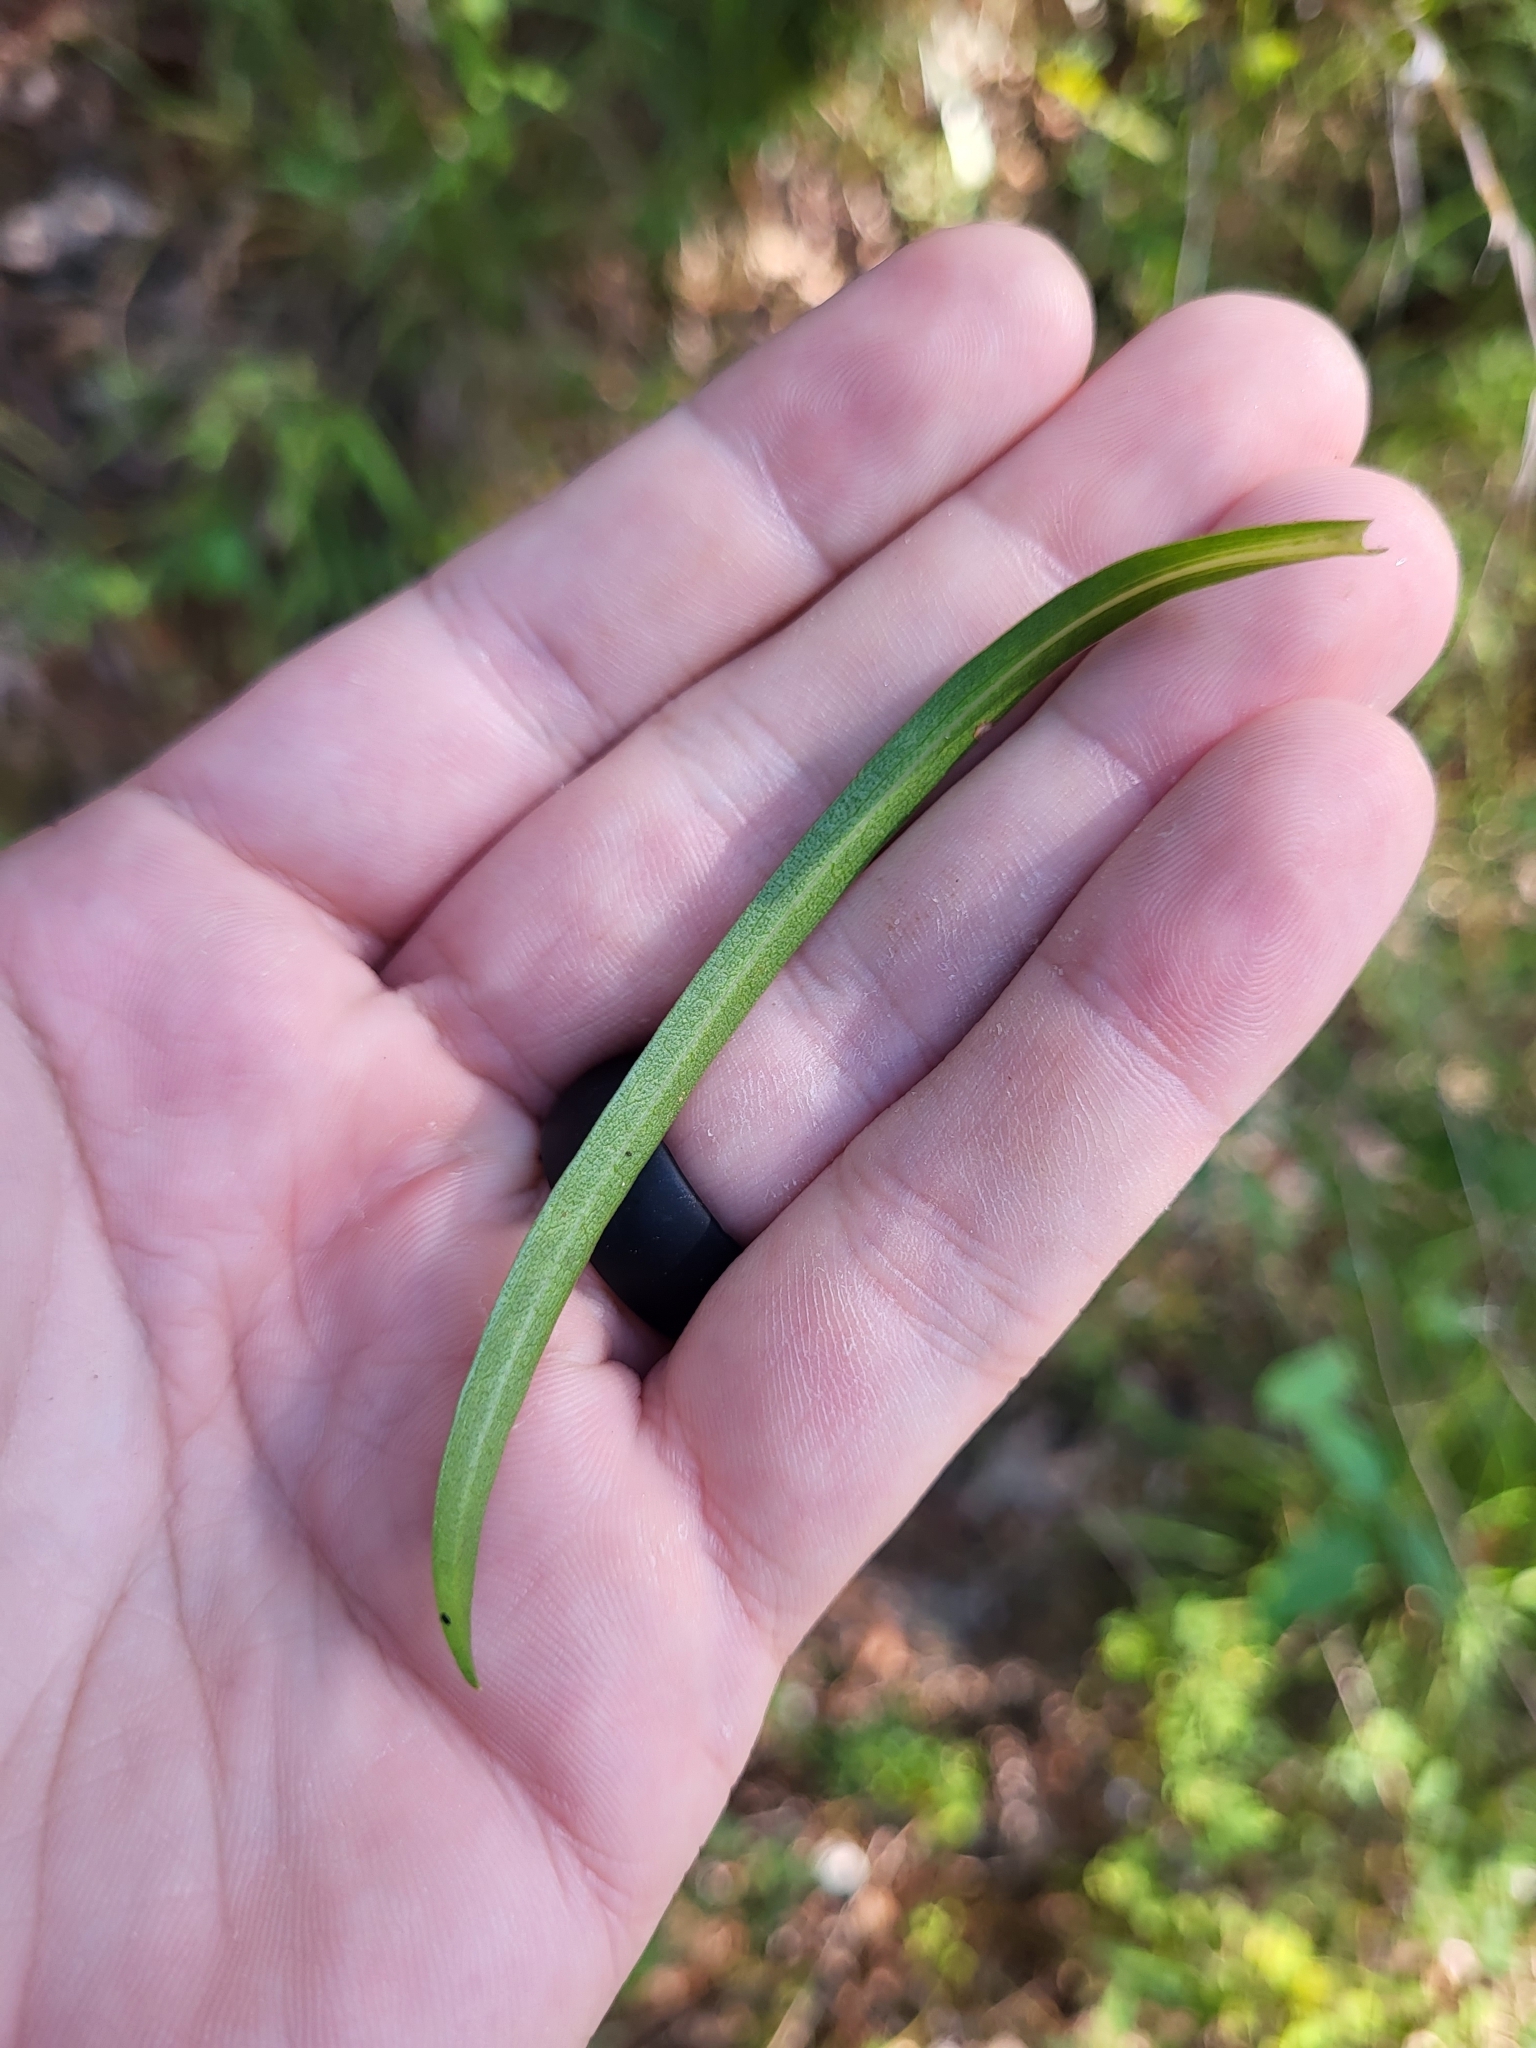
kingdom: Plantae
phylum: Tracheophyta
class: Magnoliopsida
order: Asterales
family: Asteraceae
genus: Eurybia
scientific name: Eurybia hemispherica
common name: Showy aster
